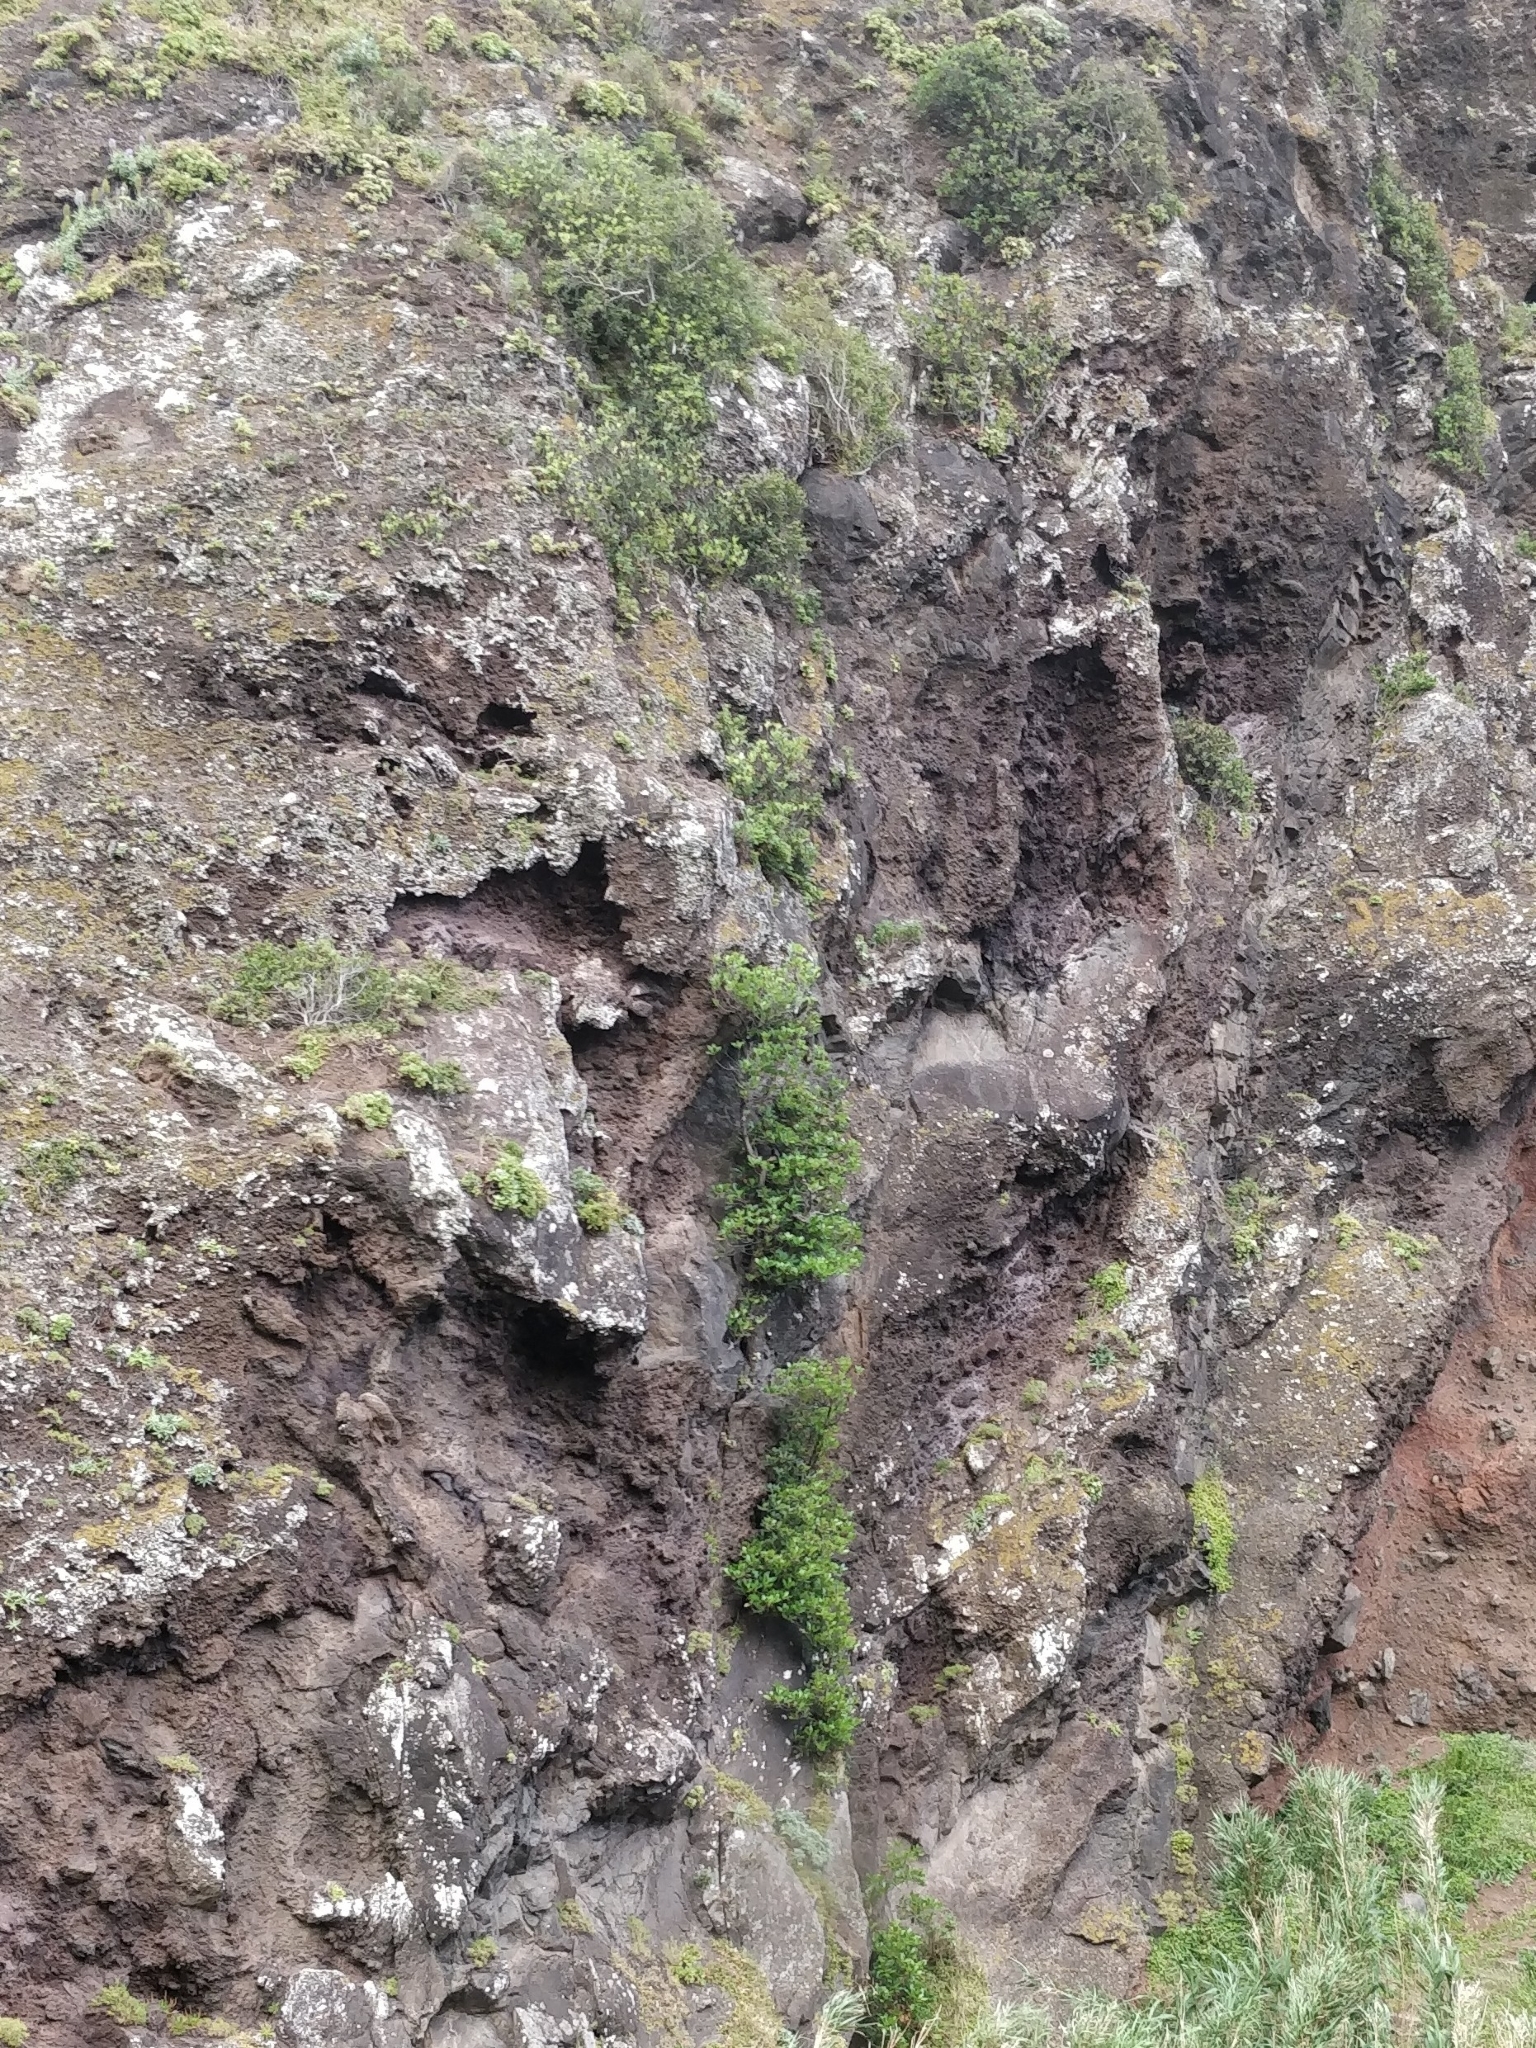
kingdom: Plantae
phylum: Tracheophyta
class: Magnoliopsida
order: Ericales
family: Sapotaceae
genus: Sideroxylon
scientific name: Sideroxylon mirmulans
